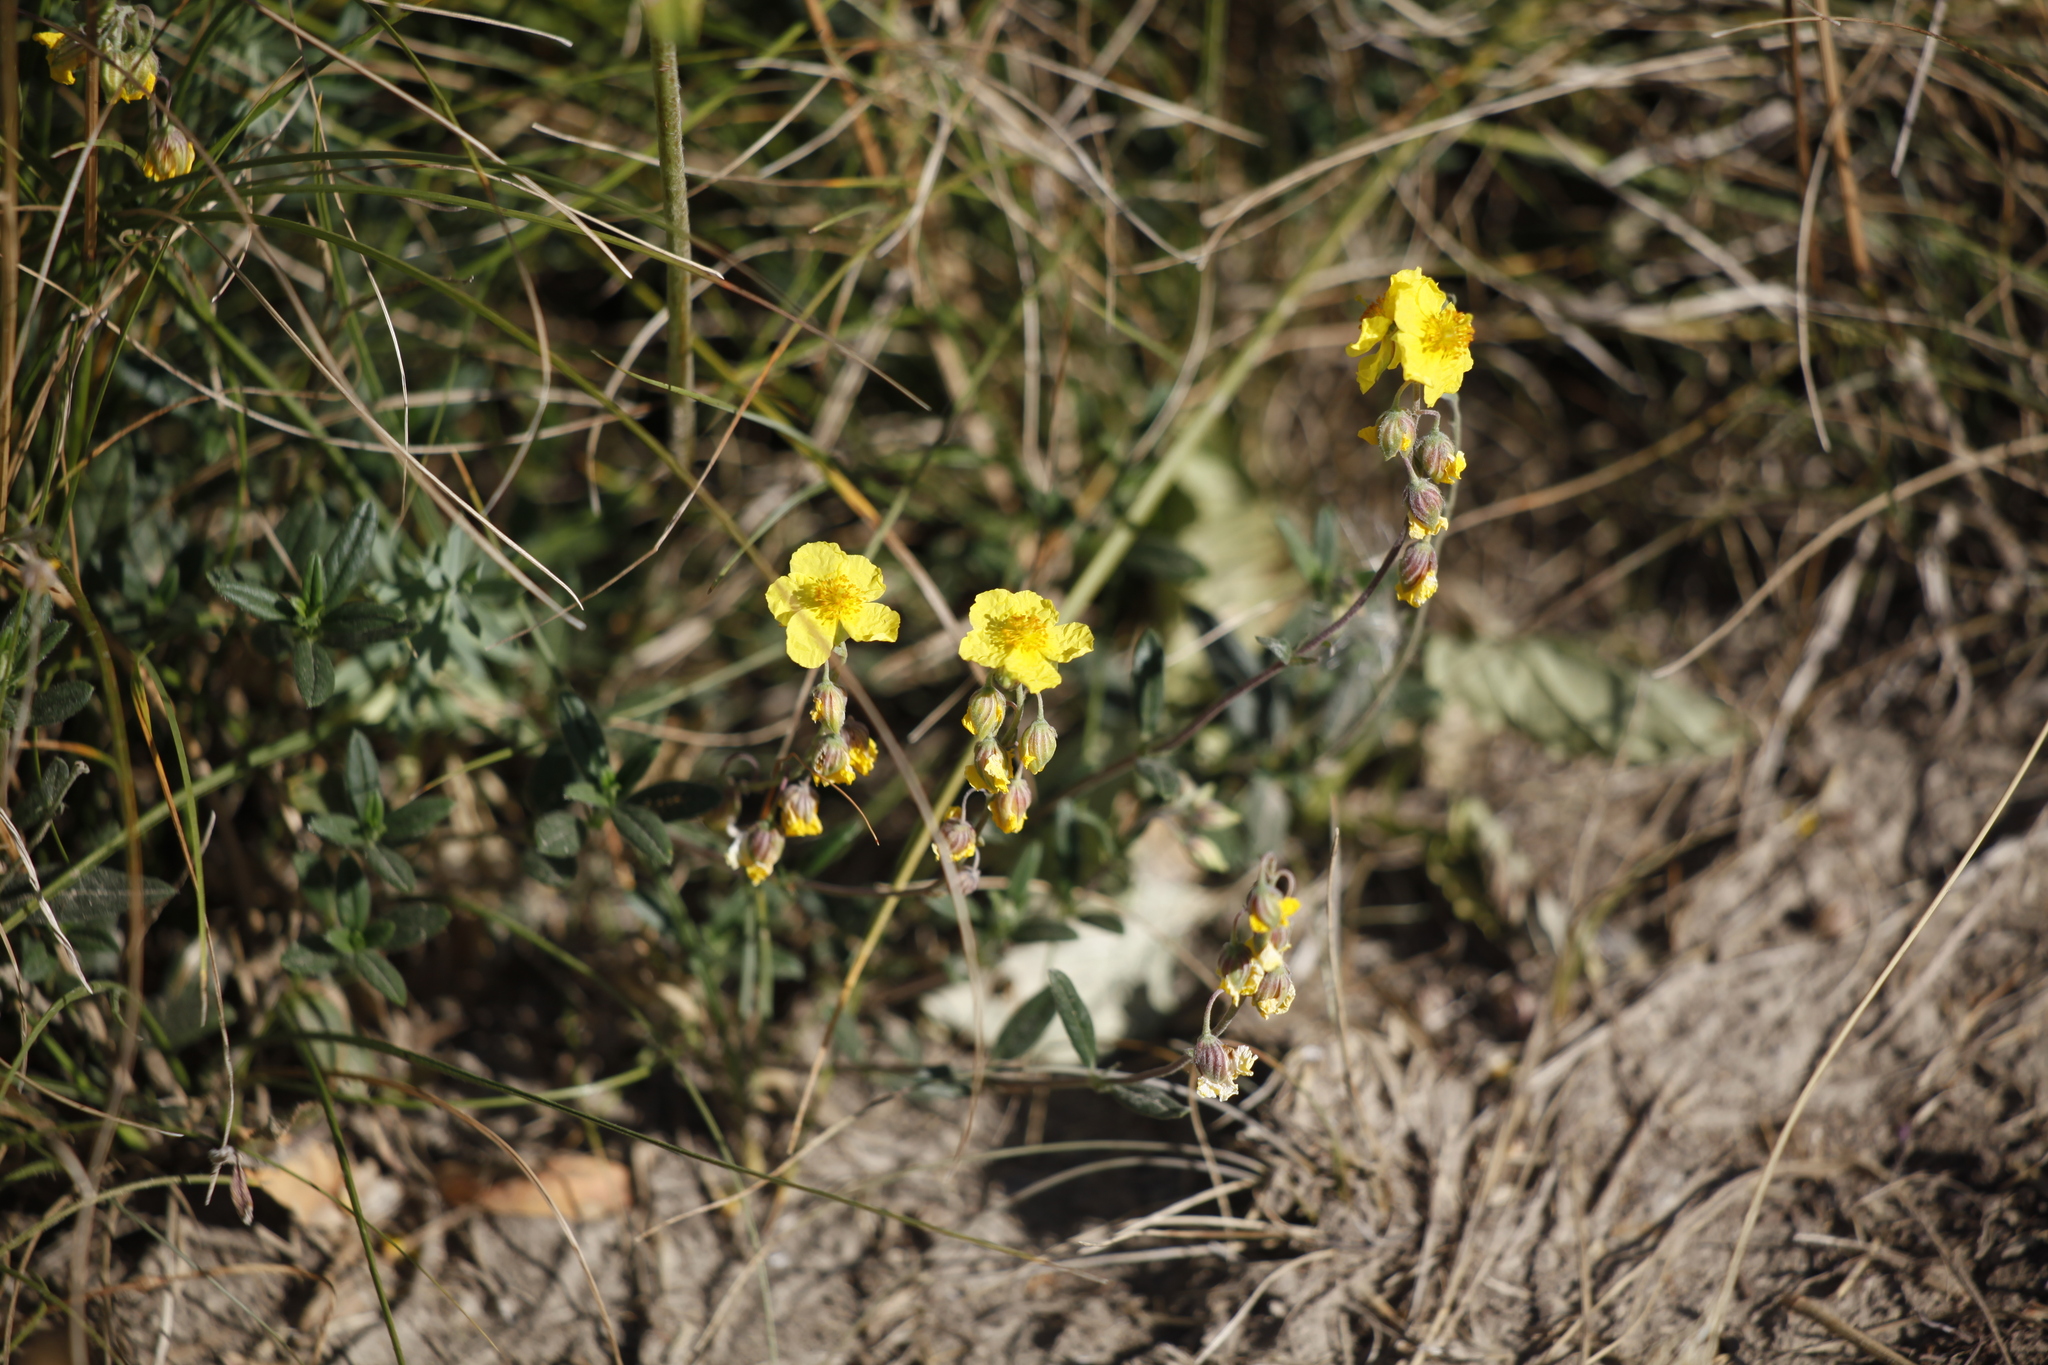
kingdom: Plantae
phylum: Tracheophyta
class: Magnoliopsida
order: Malvales
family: Cistaceae
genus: Helianthemum
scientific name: Helianthemum nummularium
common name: Common rock-rose
